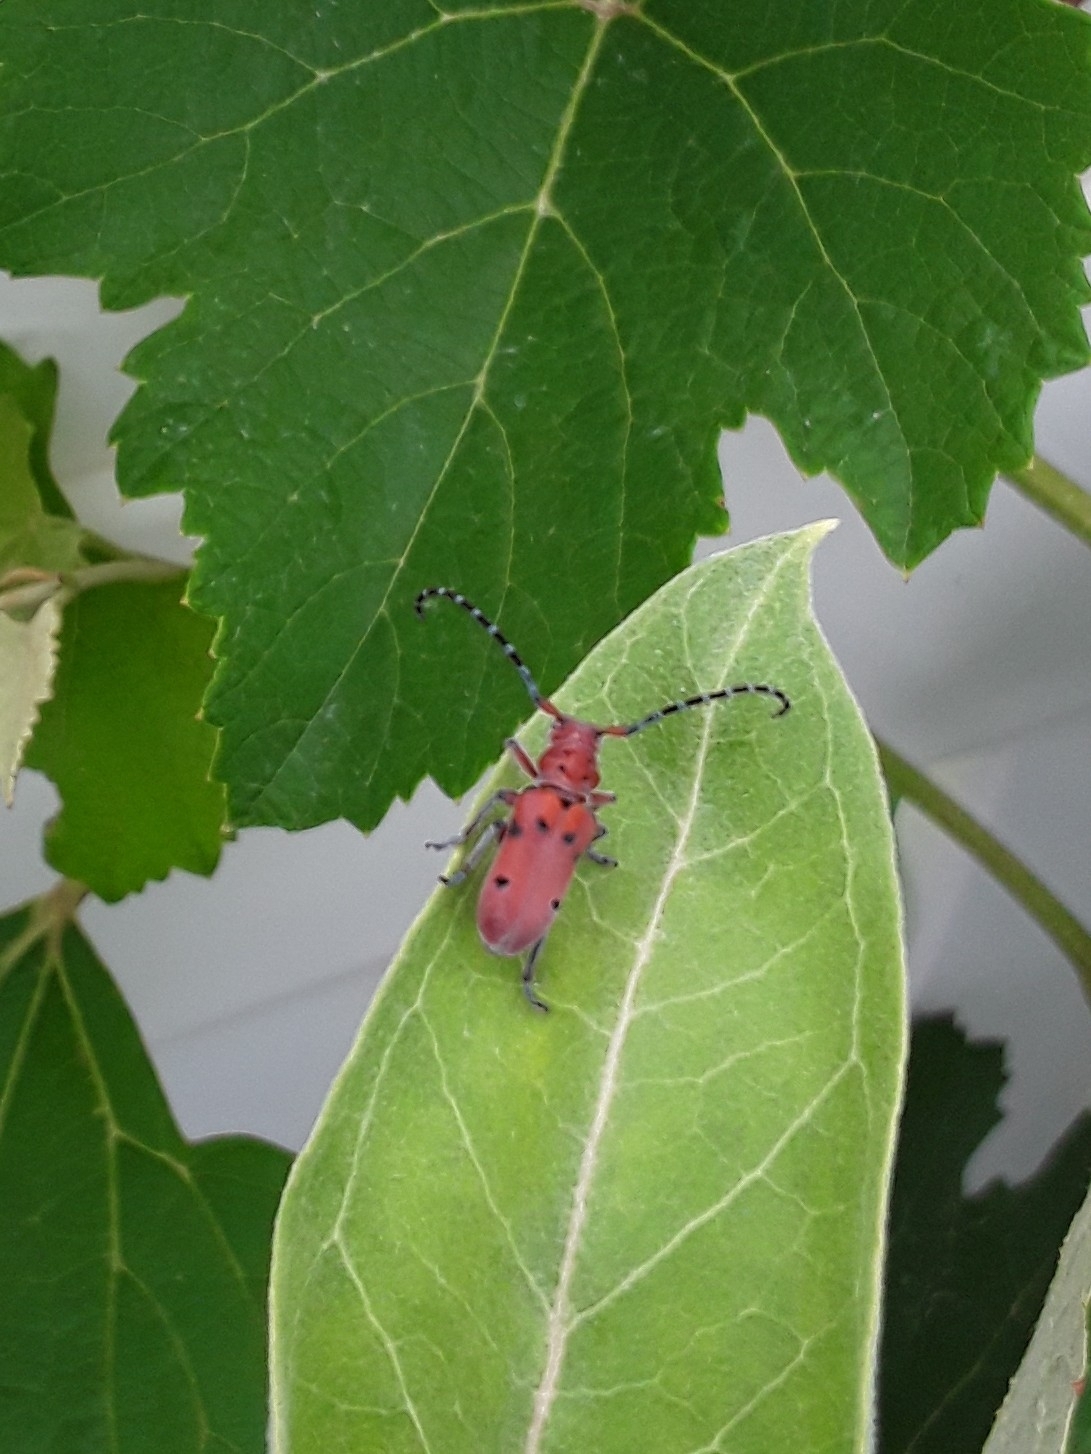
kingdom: Animalia
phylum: Arthropoda
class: Insecta
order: Coleoptera
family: Cerambycidae
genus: Tetraopes
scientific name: Tetraopes femoratus
